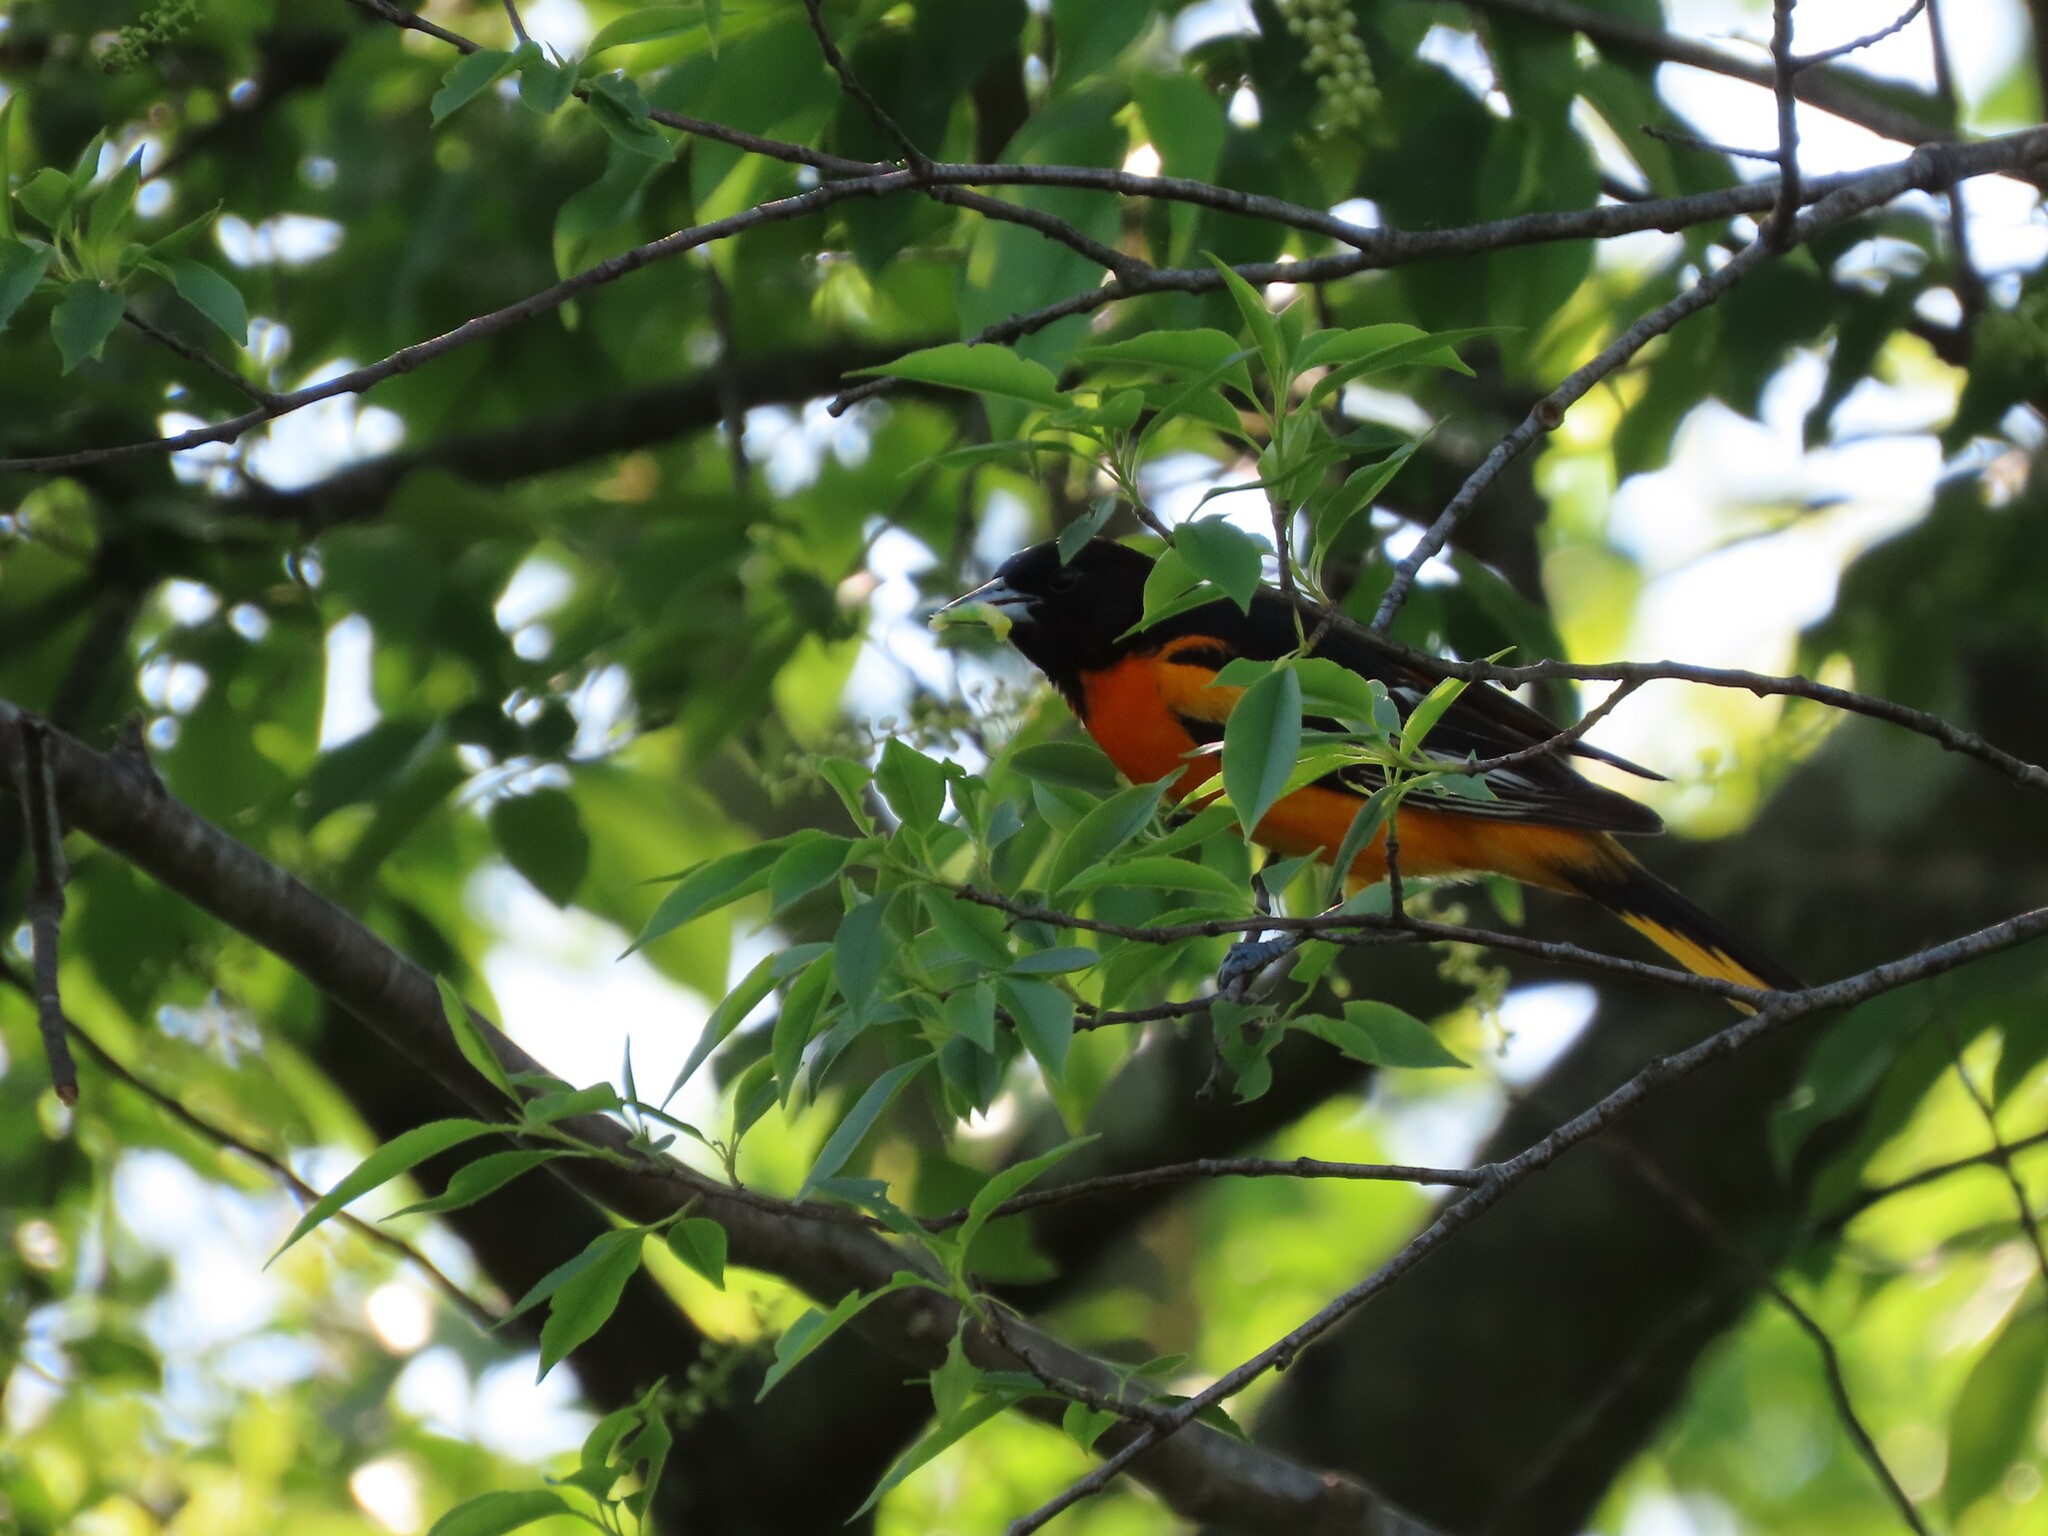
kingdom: Animalia
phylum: Chordata
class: Aves
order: Passeriformes
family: Icteridae
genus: Icterus
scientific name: Icterus galbula
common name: Baltimore oriole
